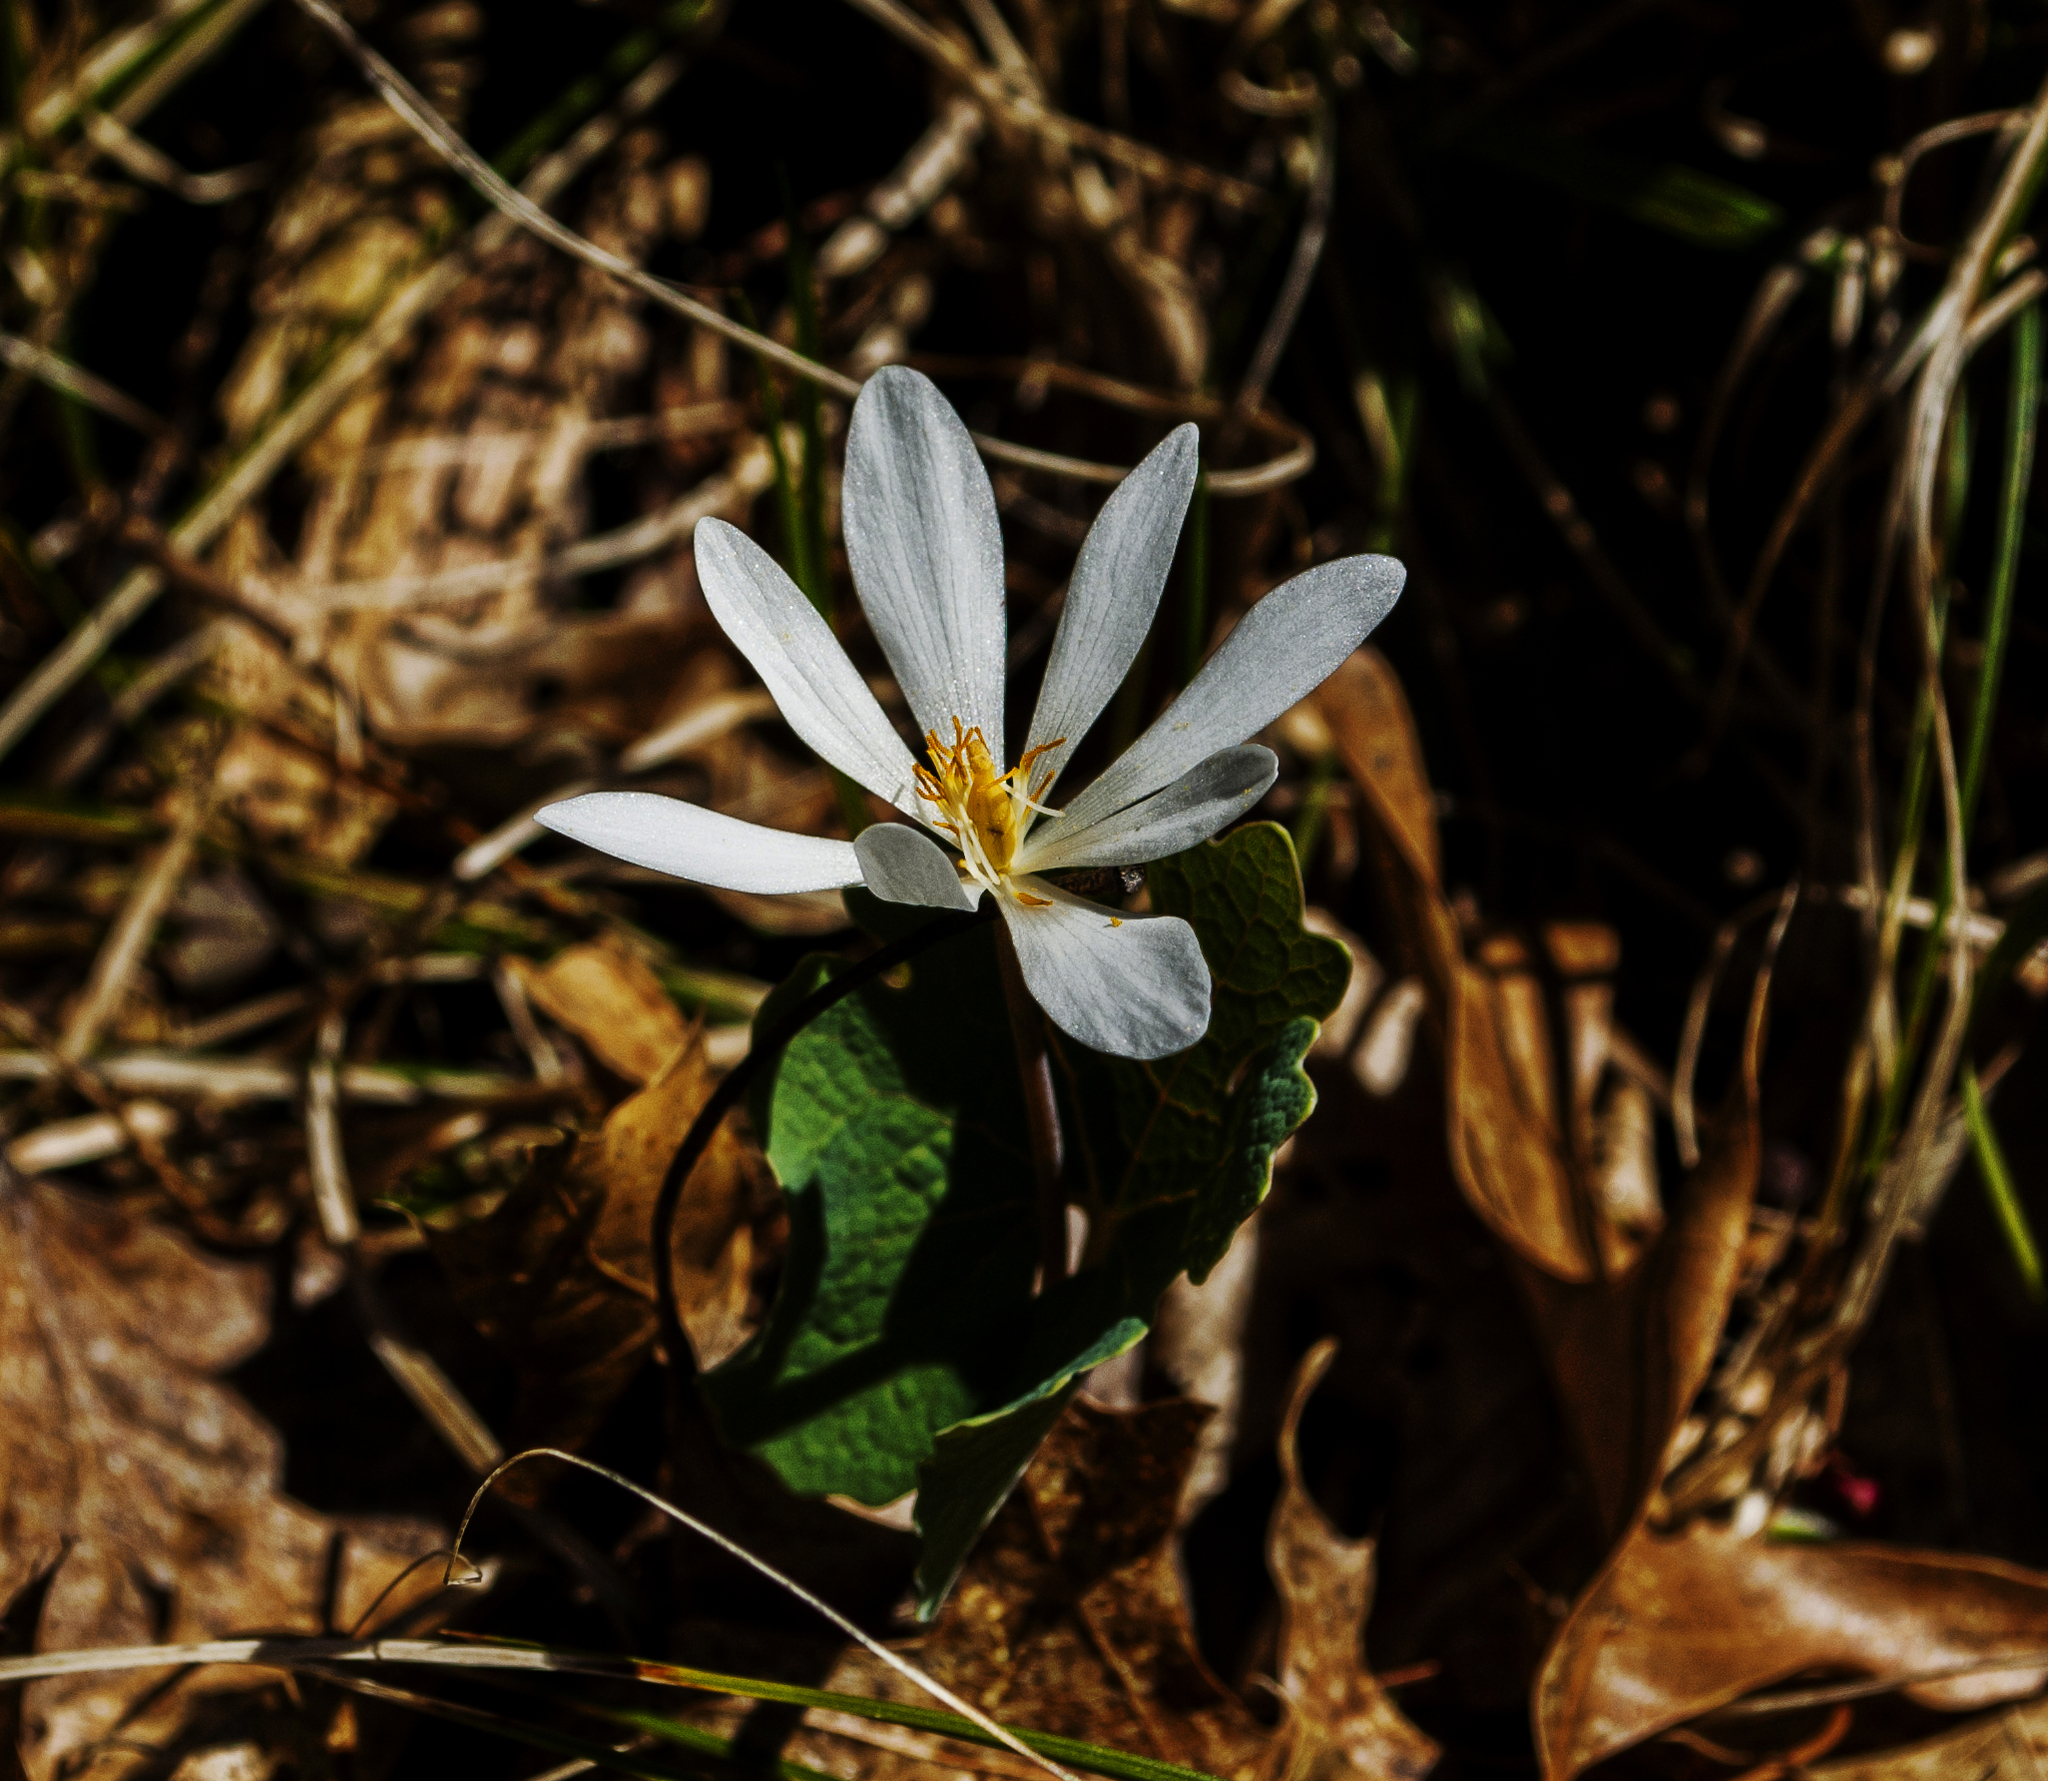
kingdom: Plantae
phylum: Tracheophyta
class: Magnoliopsida
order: Ranunculales
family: Papaveraceae
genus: Sanguinaria
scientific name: Sanguinaria canadensis
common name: Bloodroot
